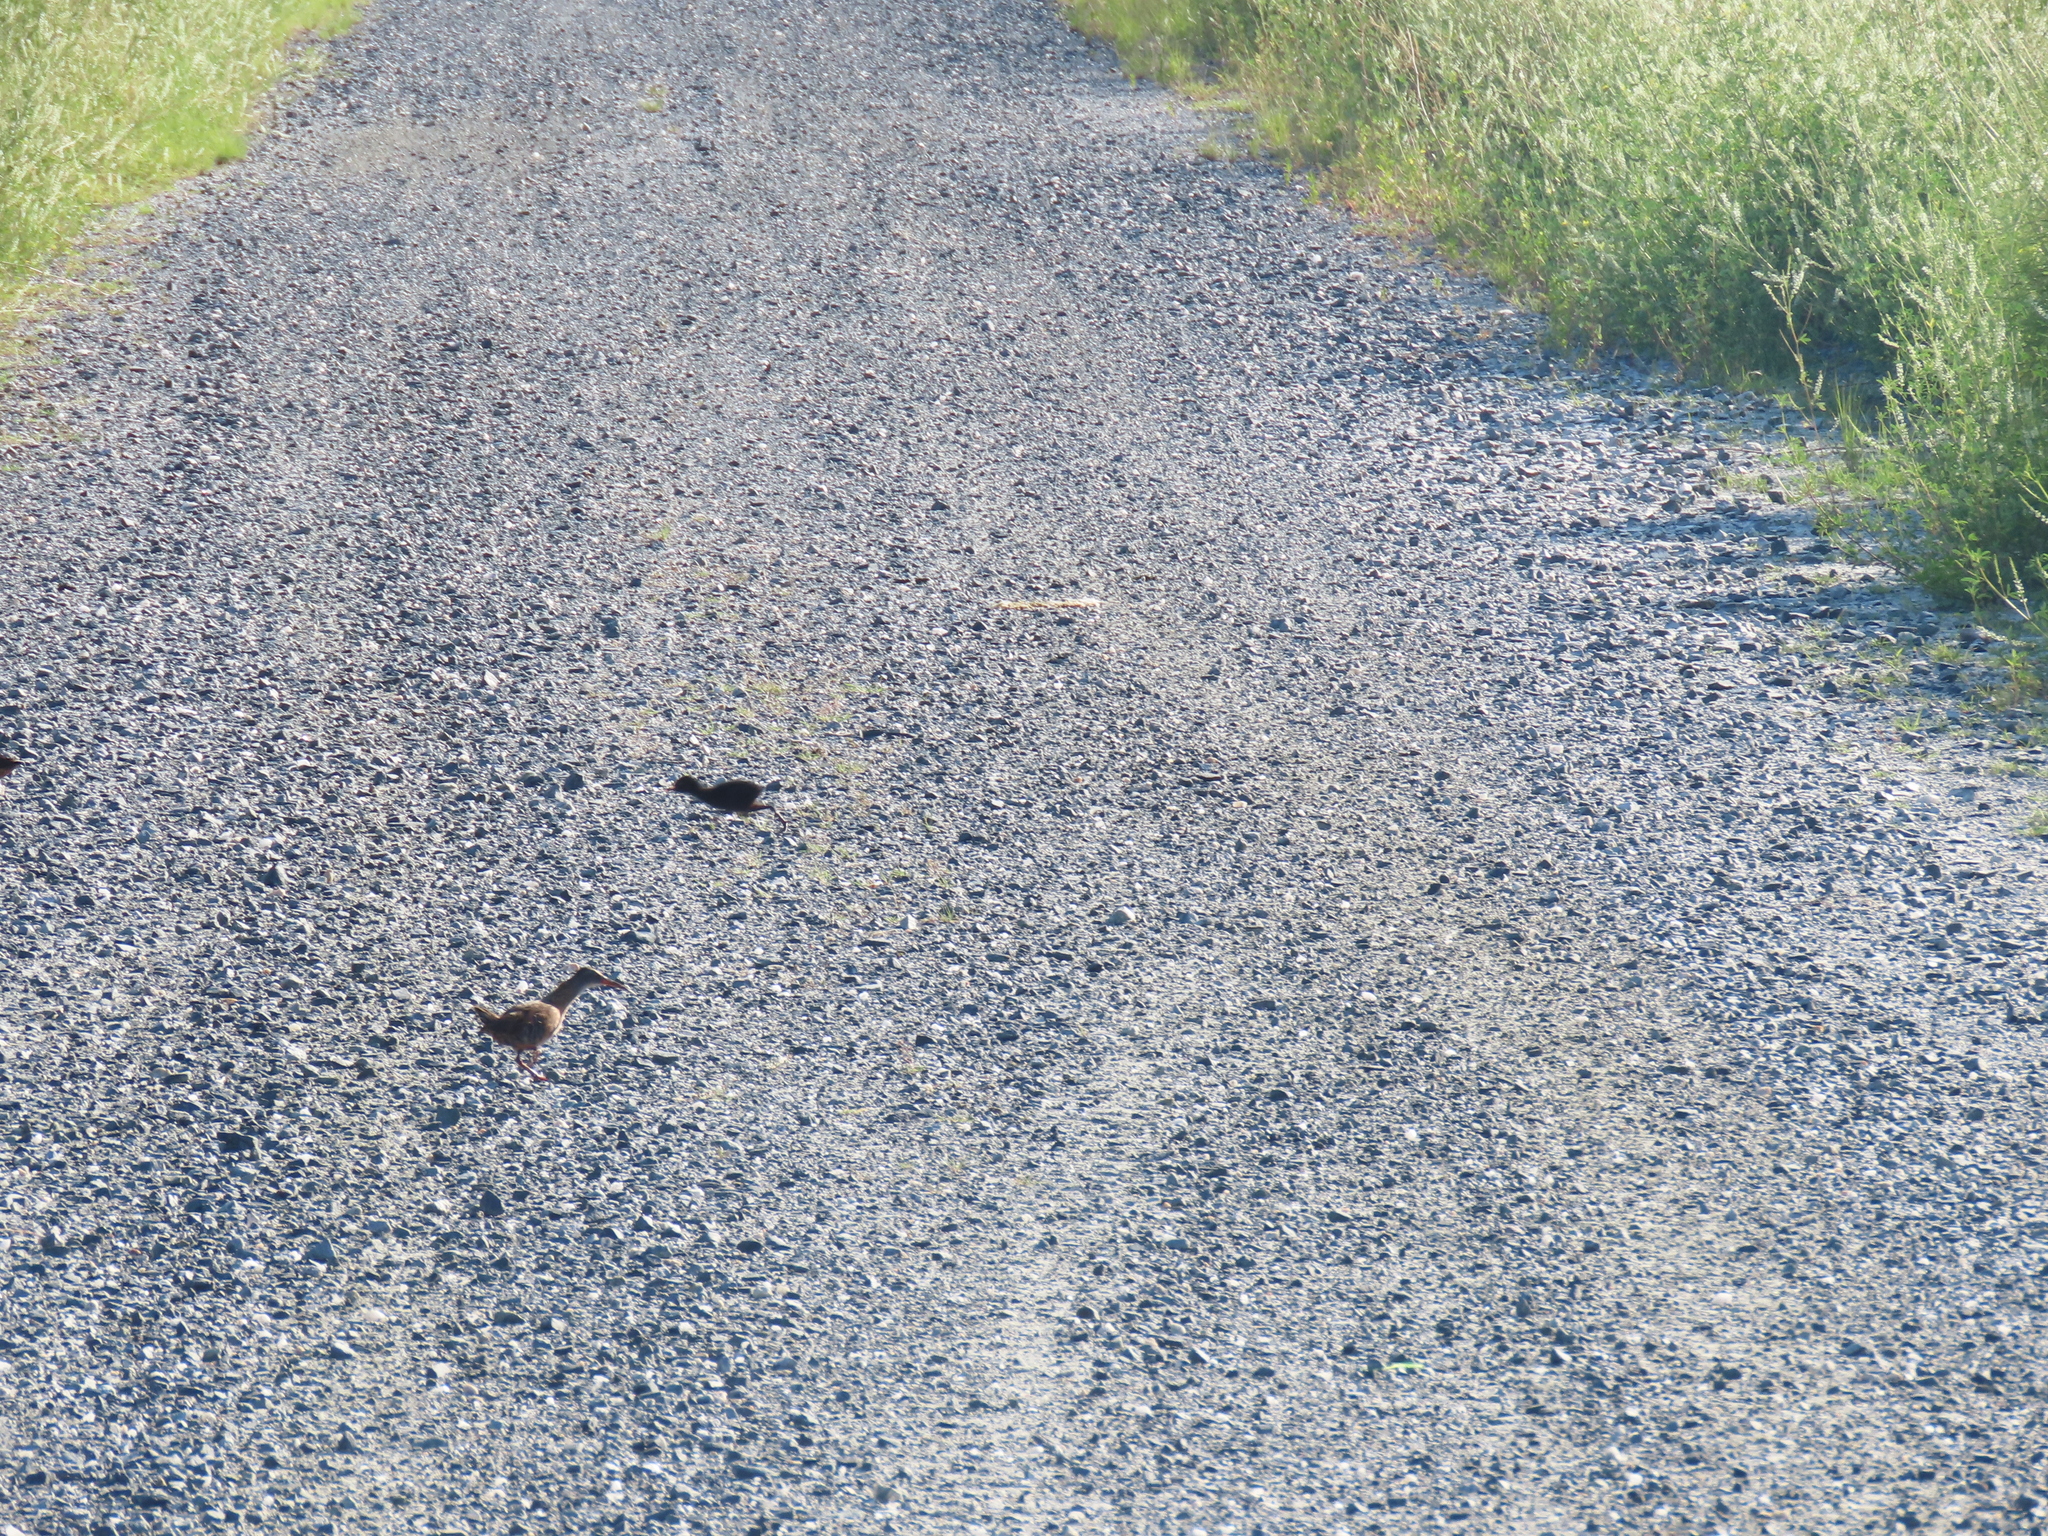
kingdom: Animalia
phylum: Chordata
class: Aves
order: Gruiformes
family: Rallidae
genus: Rallus
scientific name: Rallus limicola
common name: Virginia rail
